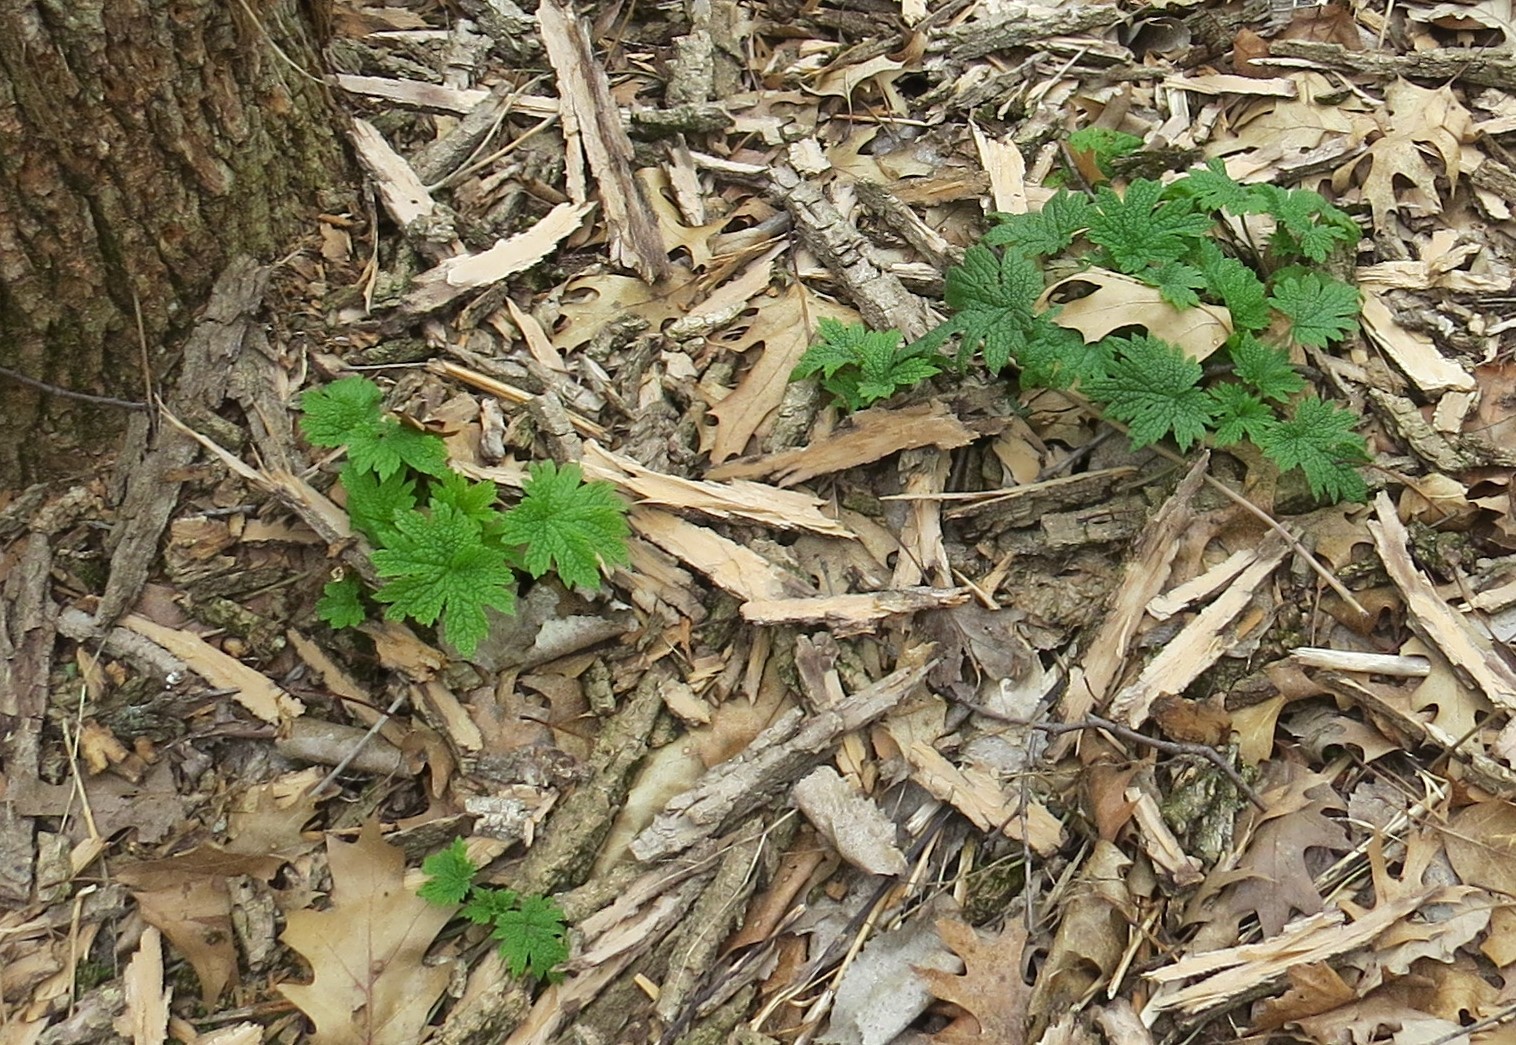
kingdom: Plantae
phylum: Tracheophyta
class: Magnoliopsida
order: Lamiales
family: Lamiaceae
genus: Leonurus
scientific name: Leonurus cardiaca
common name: Motherwort
